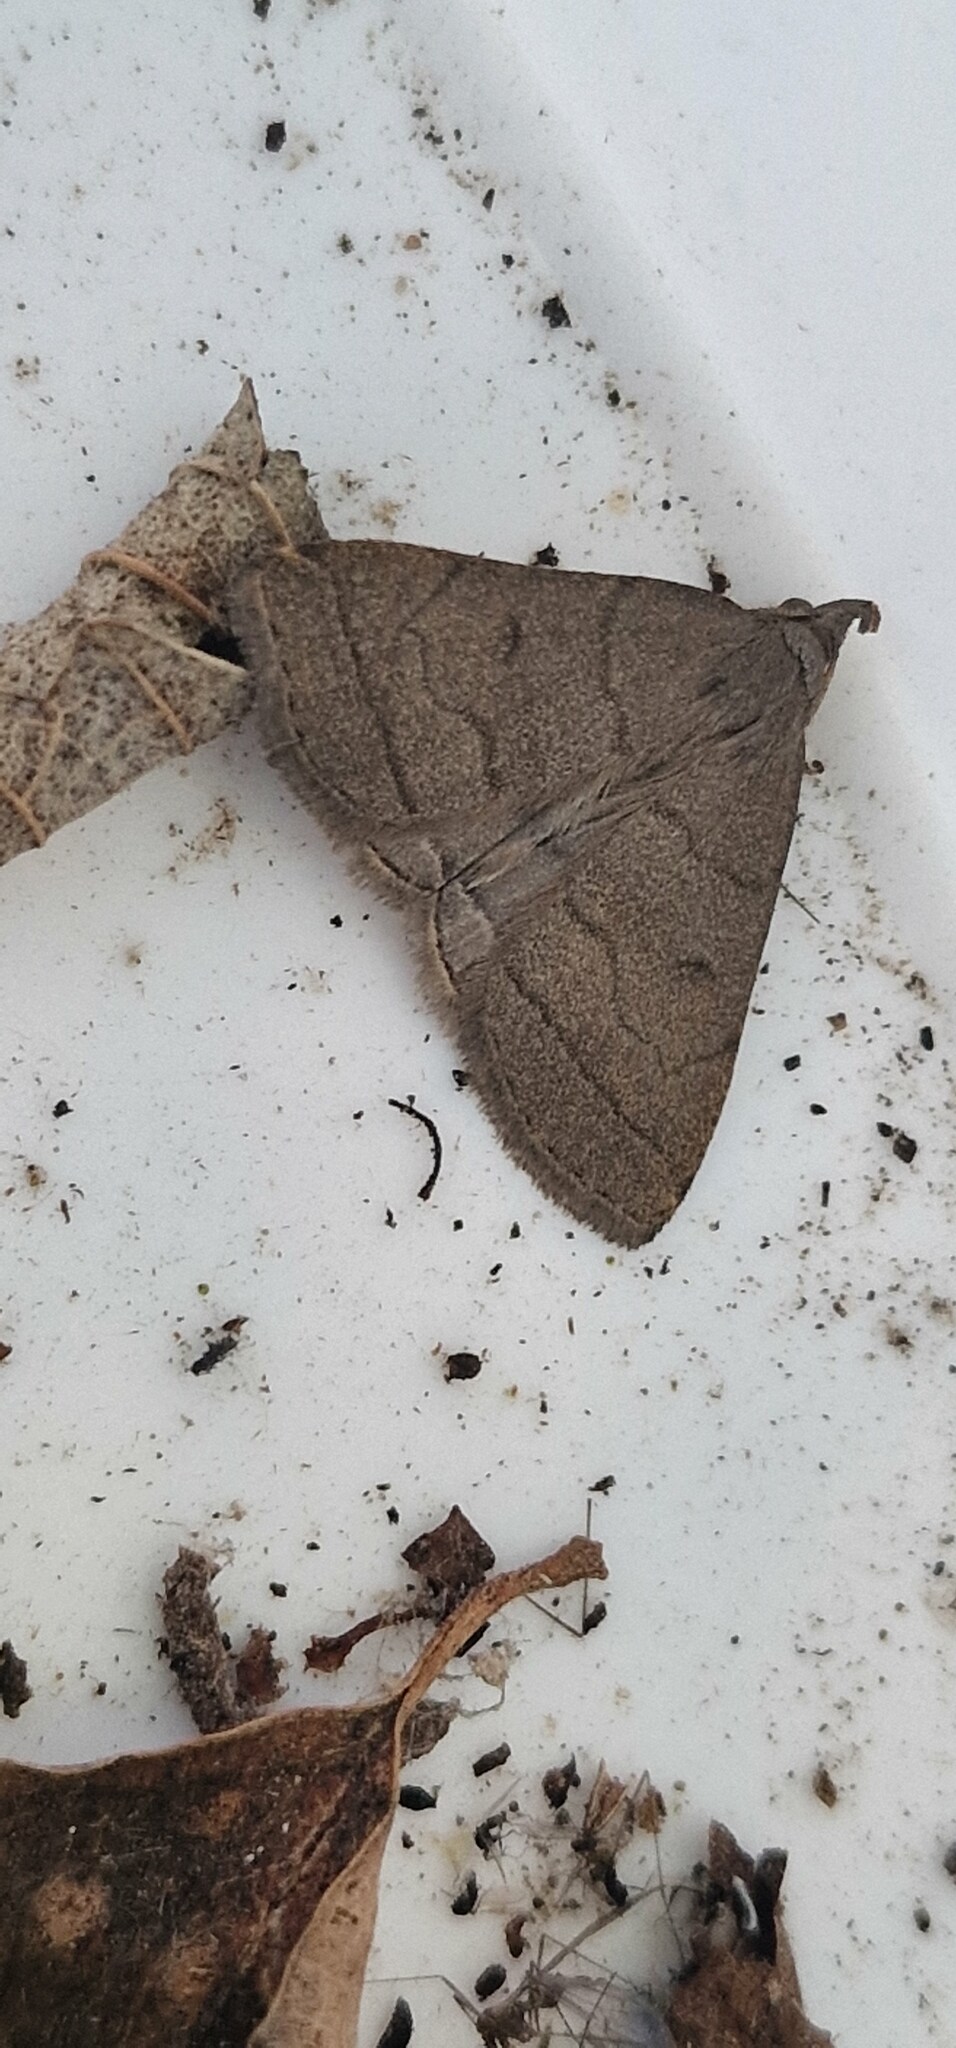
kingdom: Animalia
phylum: Arthropoda
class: Insecta
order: Lepidoptera
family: Erebidae
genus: Herminia
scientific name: Herminia tarsipennalis
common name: Fan-foot
